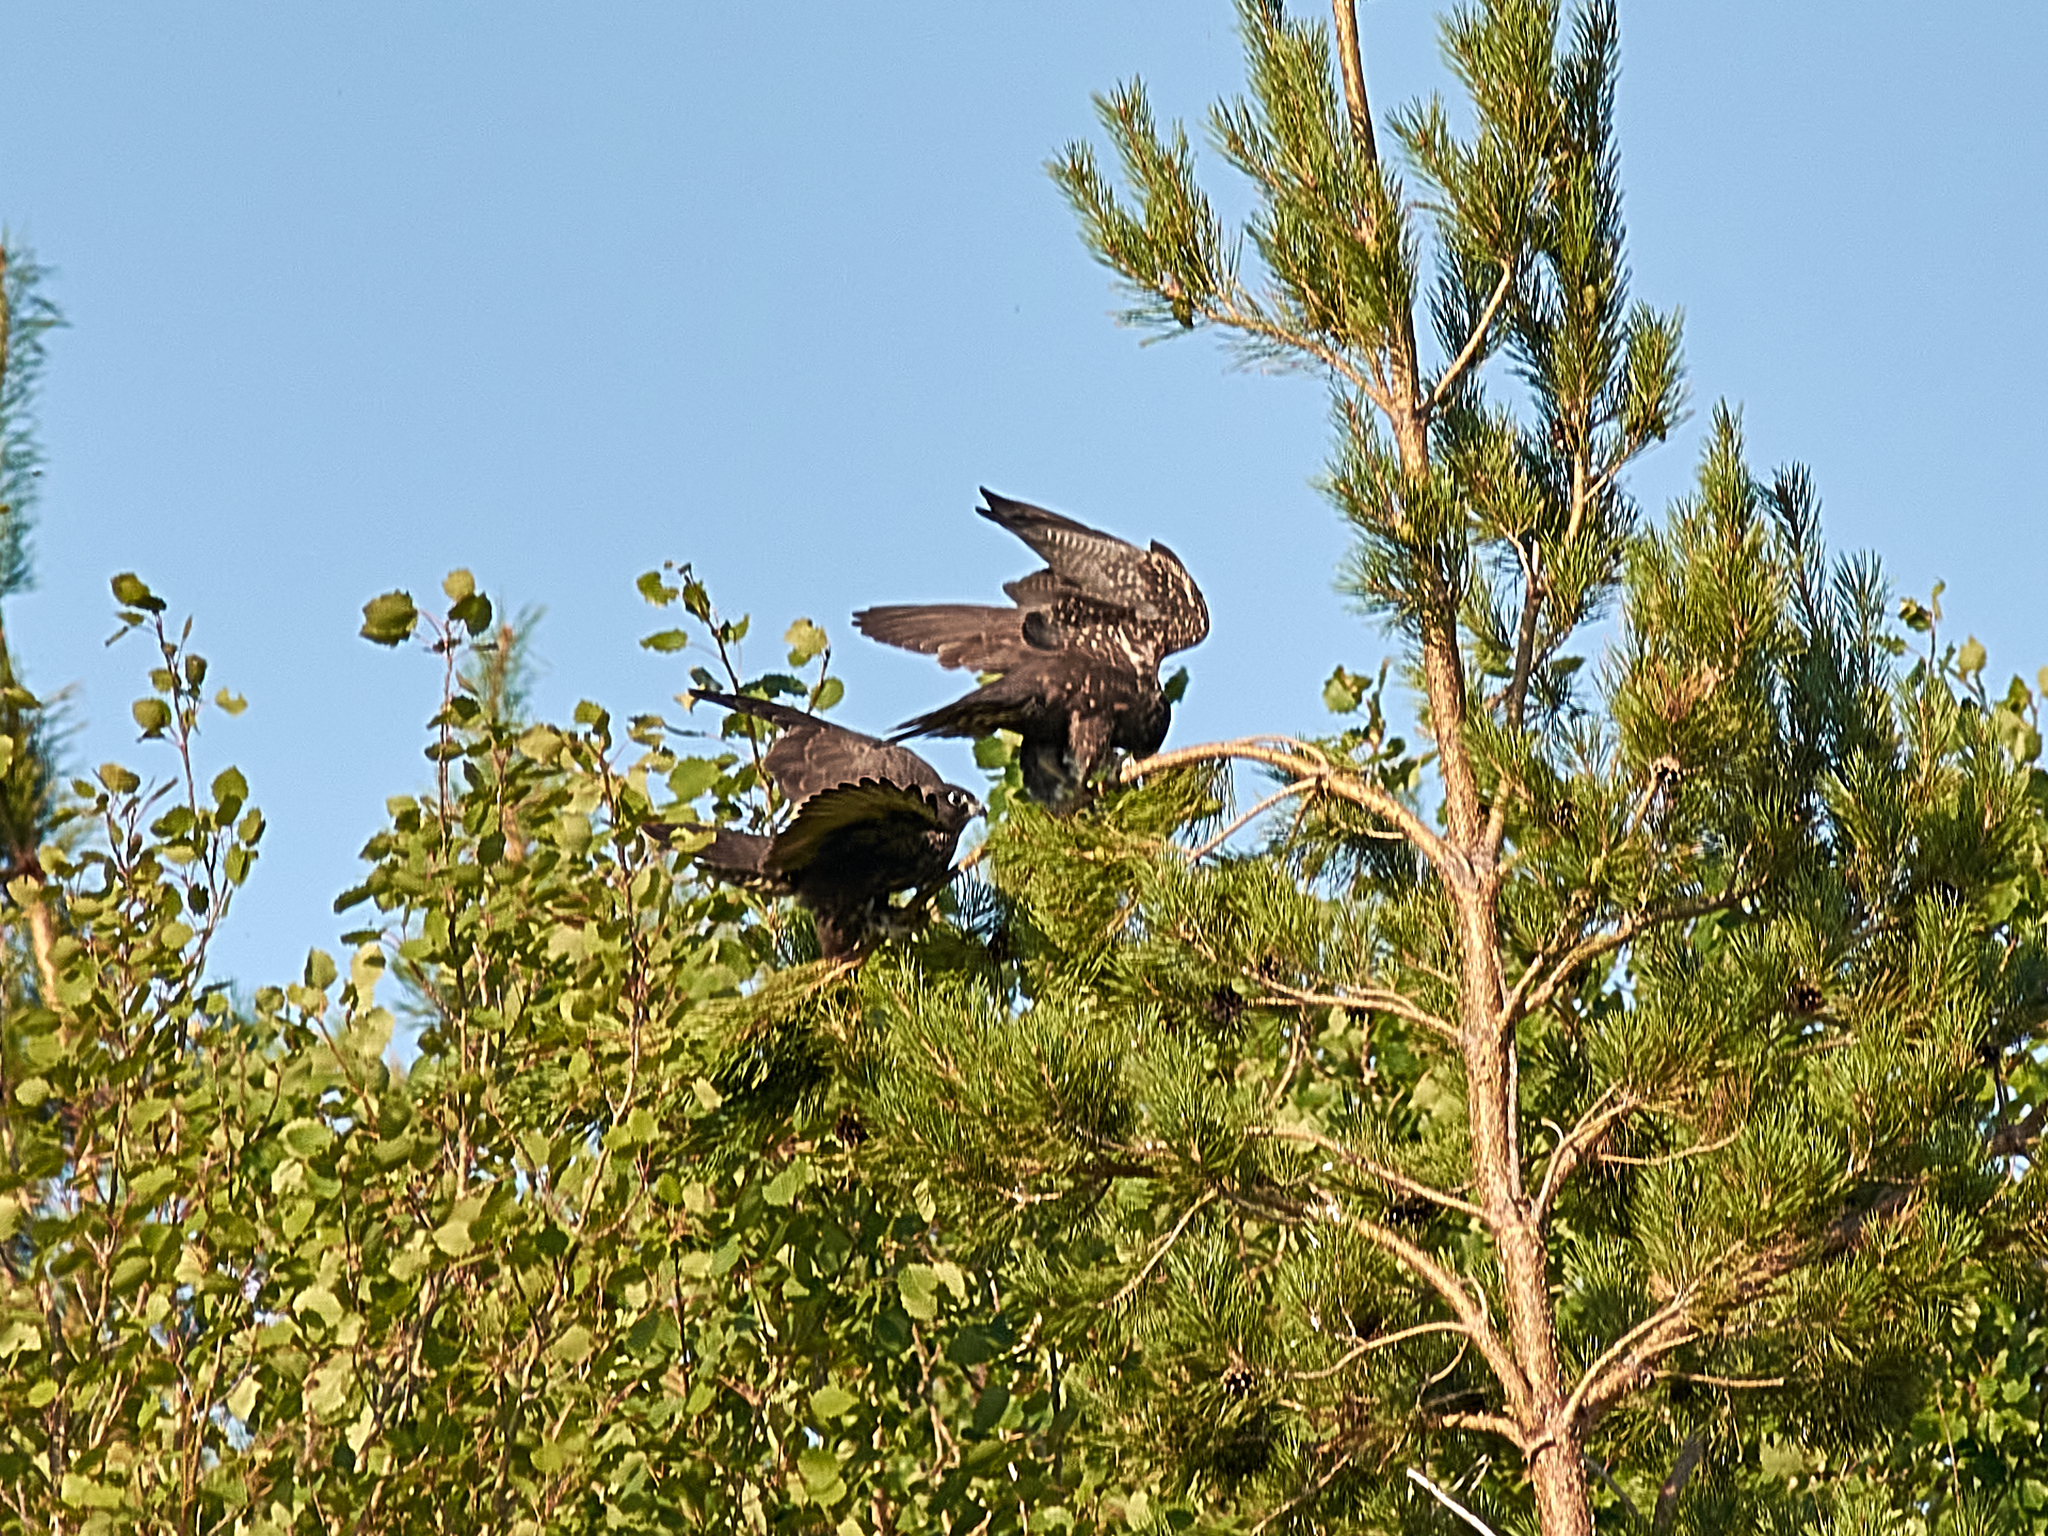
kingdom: Animalia
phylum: Chordata
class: Aves
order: Falconiformes
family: Falconidae
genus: Falco
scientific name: Falco cherrug
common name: Saker falcon
